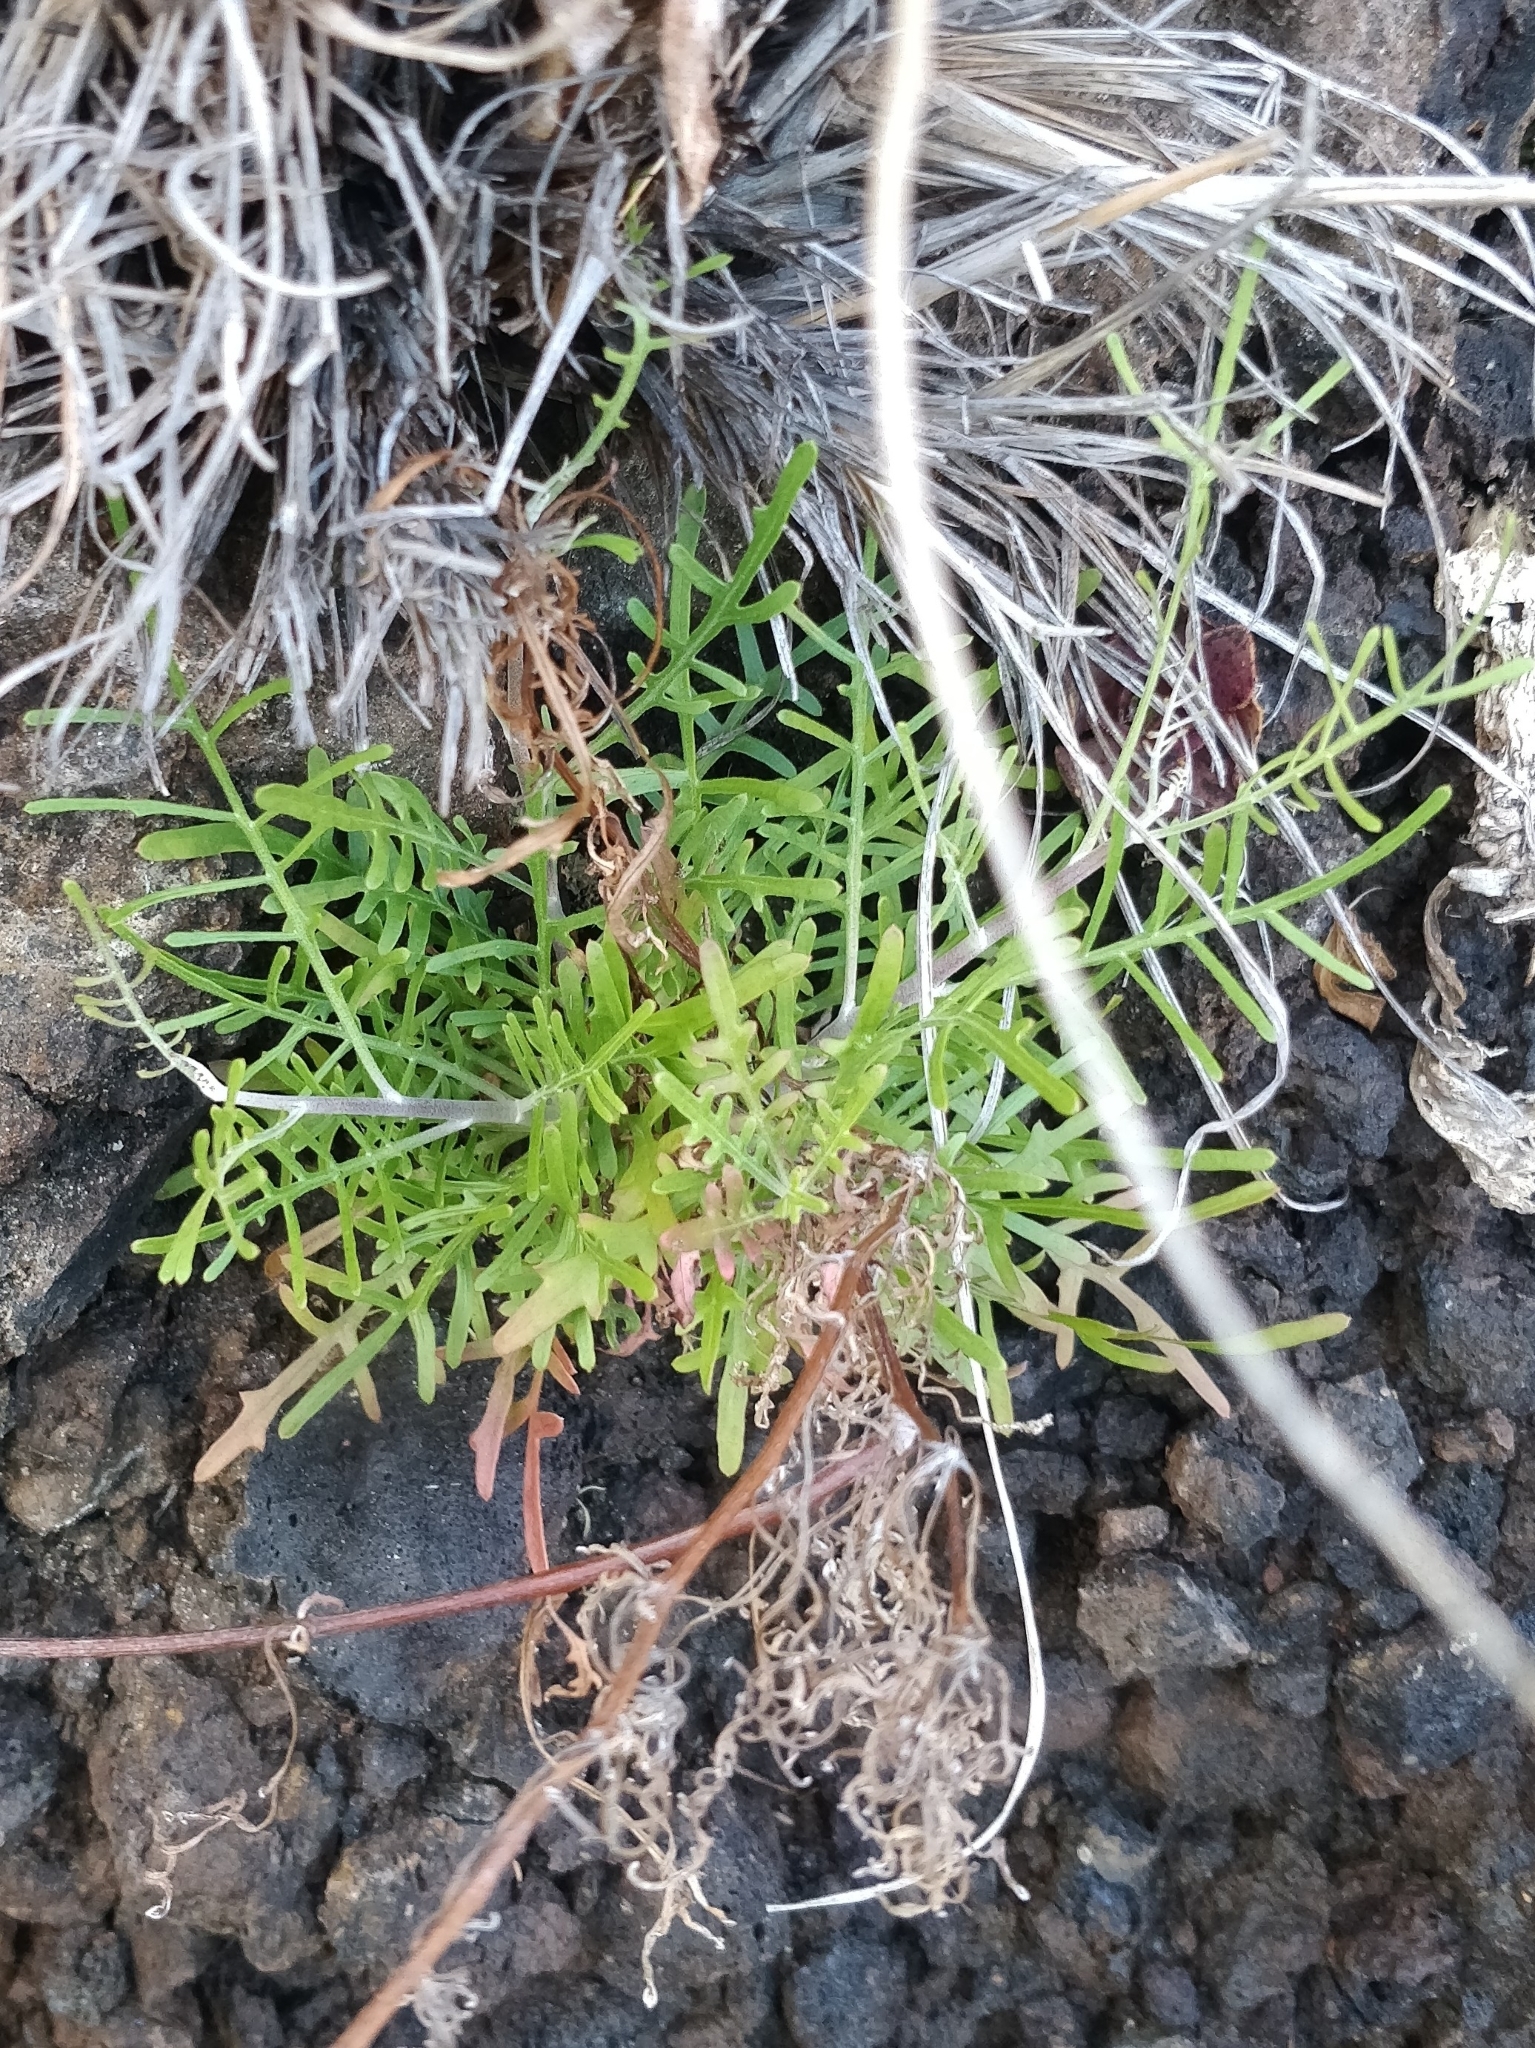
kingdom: Plantae
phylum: Tracheophyta
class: Magnoliopsida
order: Asterales
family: Asteraceae
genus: Tolpis
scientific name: Tolpis succulenta
